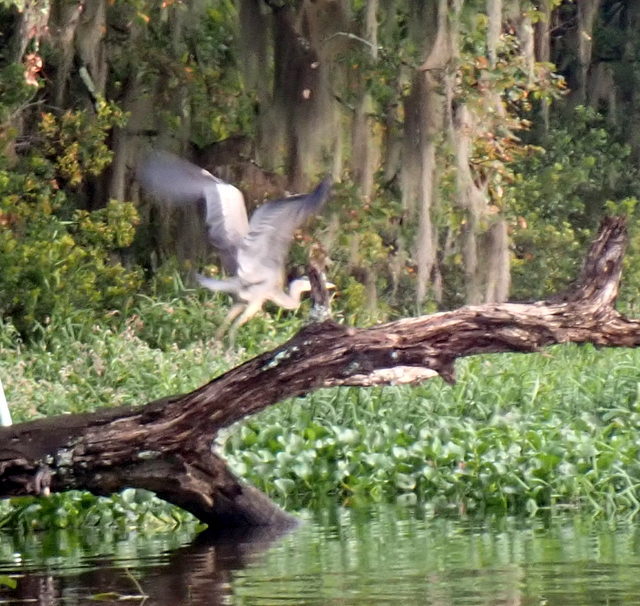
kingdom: Animalia
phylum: Chordata
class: Aves
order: Pelecaniformes
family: Ardeidae
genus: Ardea
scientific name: Ardea herodias
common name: Great blue heron
